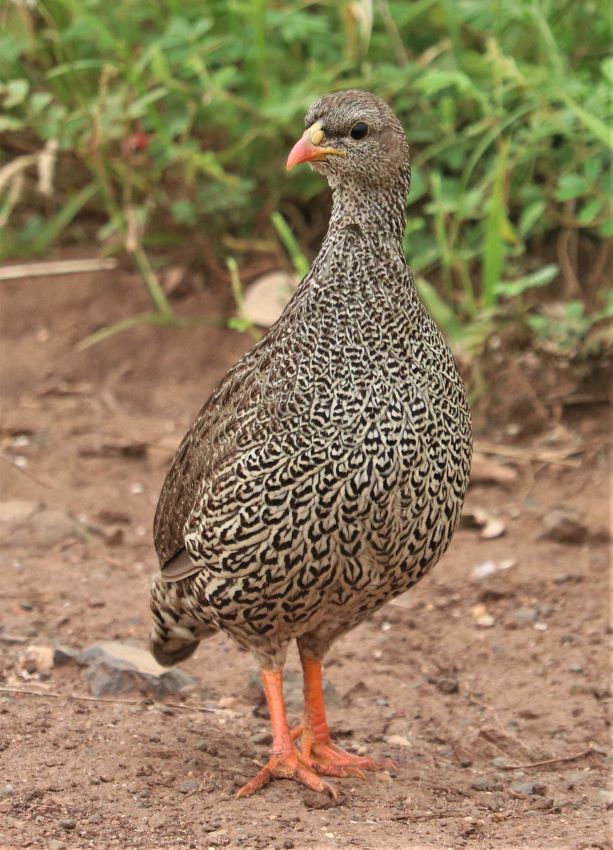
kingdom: Animalia
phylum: Chordata
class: Aves
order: Galliformes
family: Phasianidae
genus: Pternistis
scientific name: Pternistis natalensis
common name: Natal spurfowl
